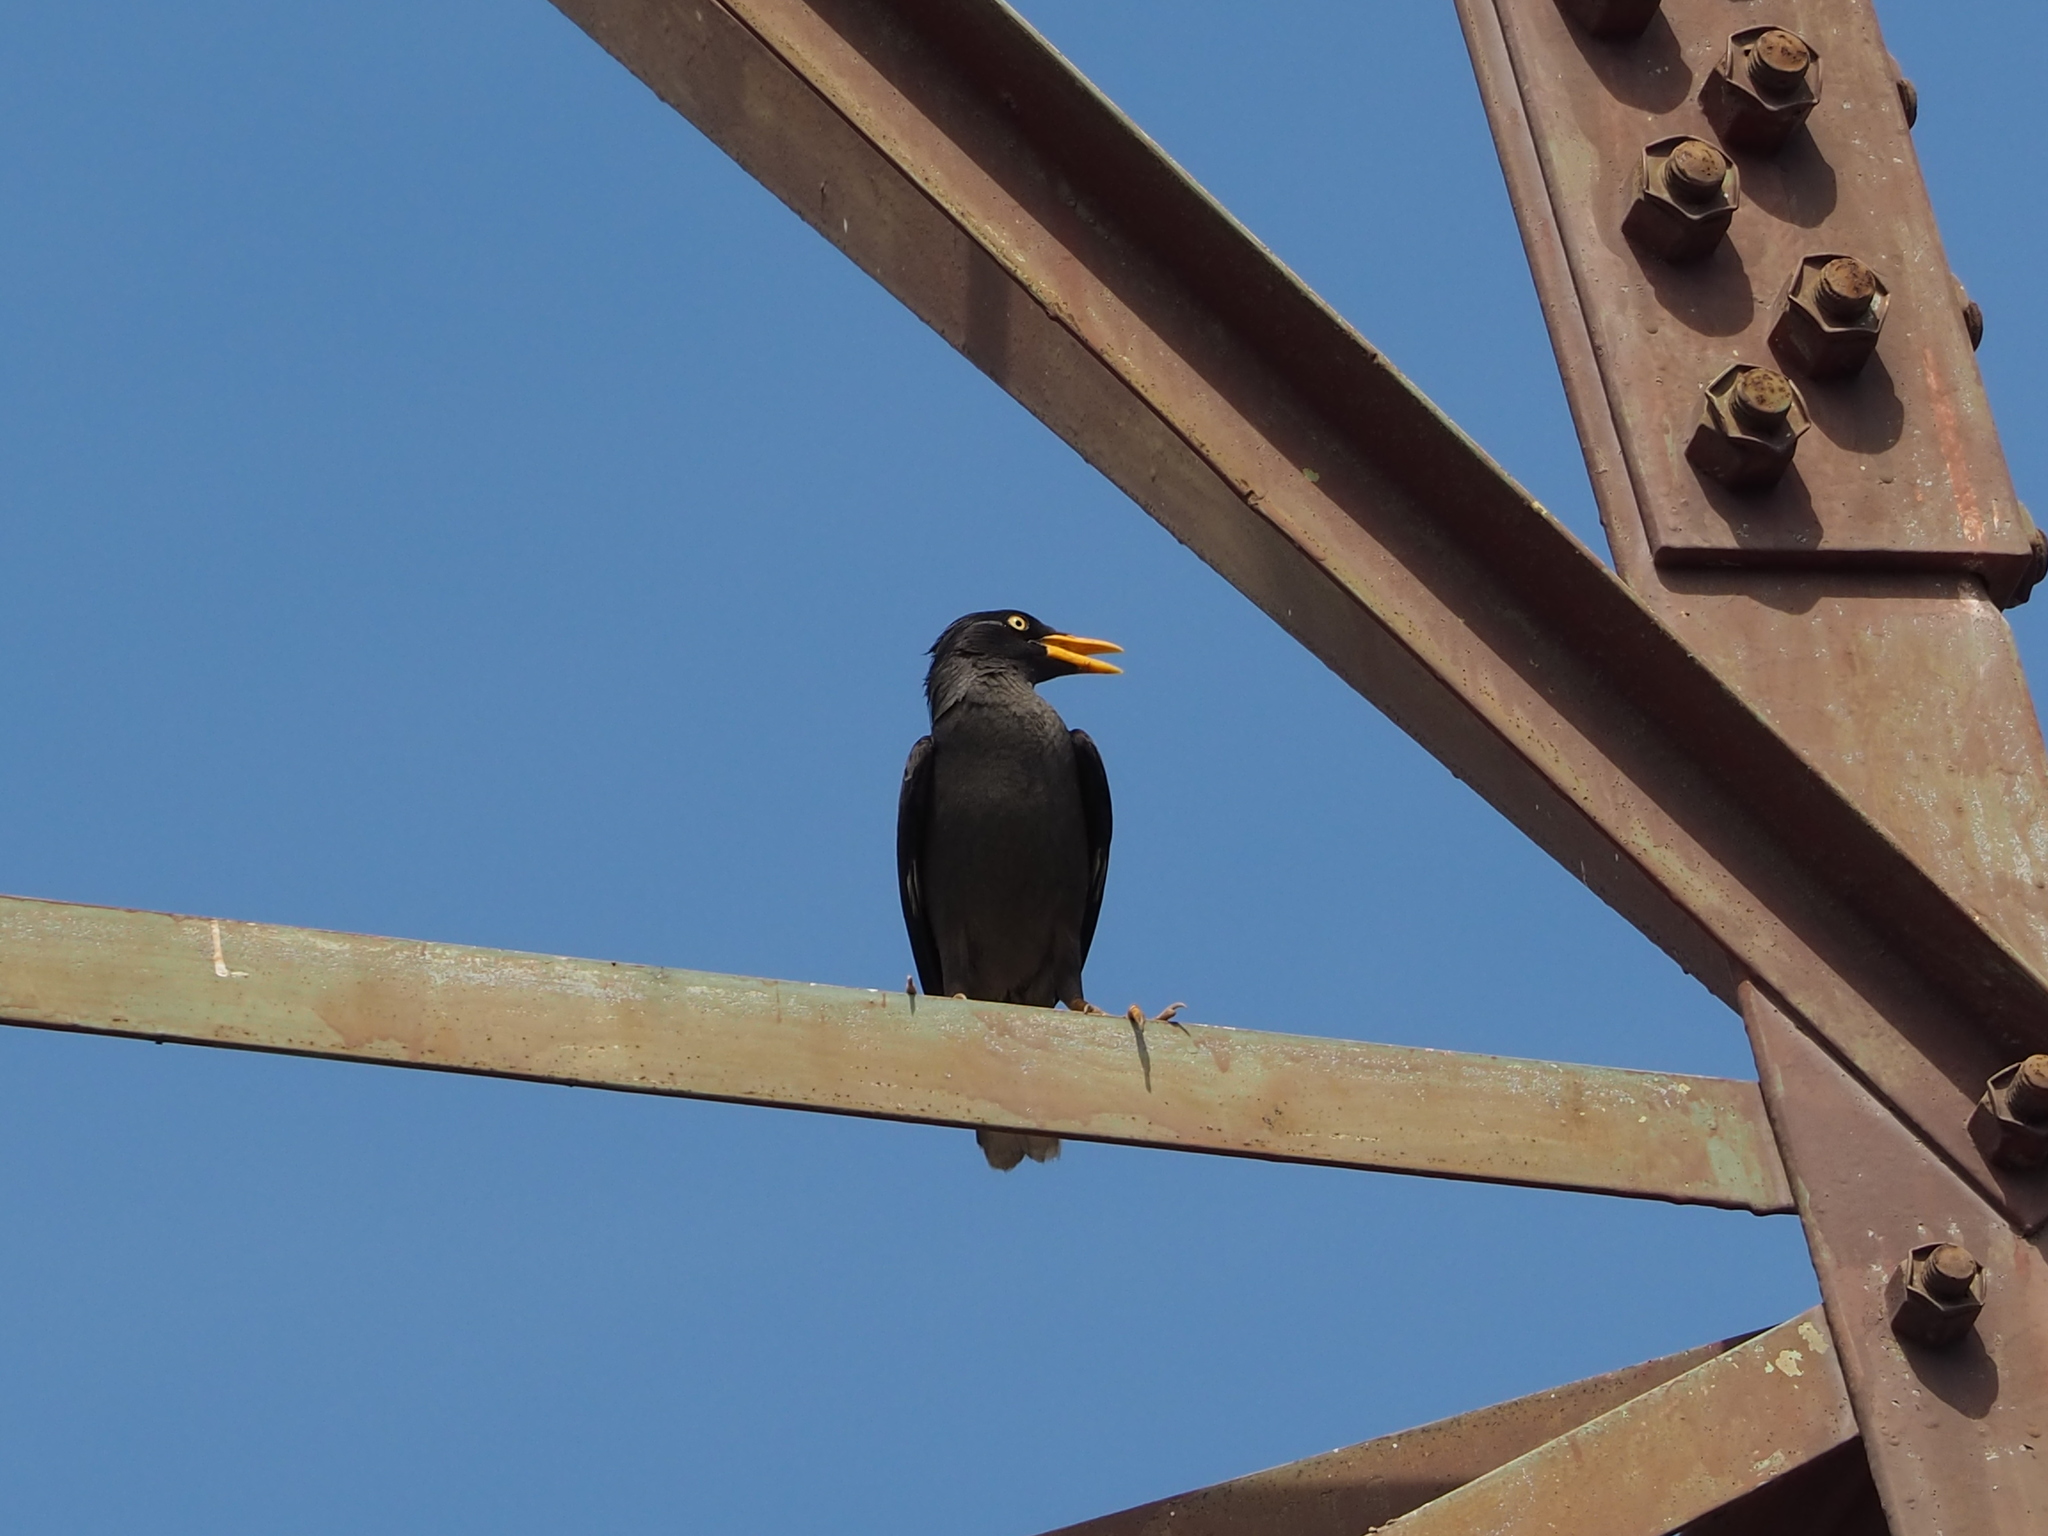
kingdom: Animalia
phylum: Chordata
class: Aves
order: Passeriformes
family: Sturnidae
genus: Acridotheres
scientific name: Acridotheres javanicus
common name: Javan myna
